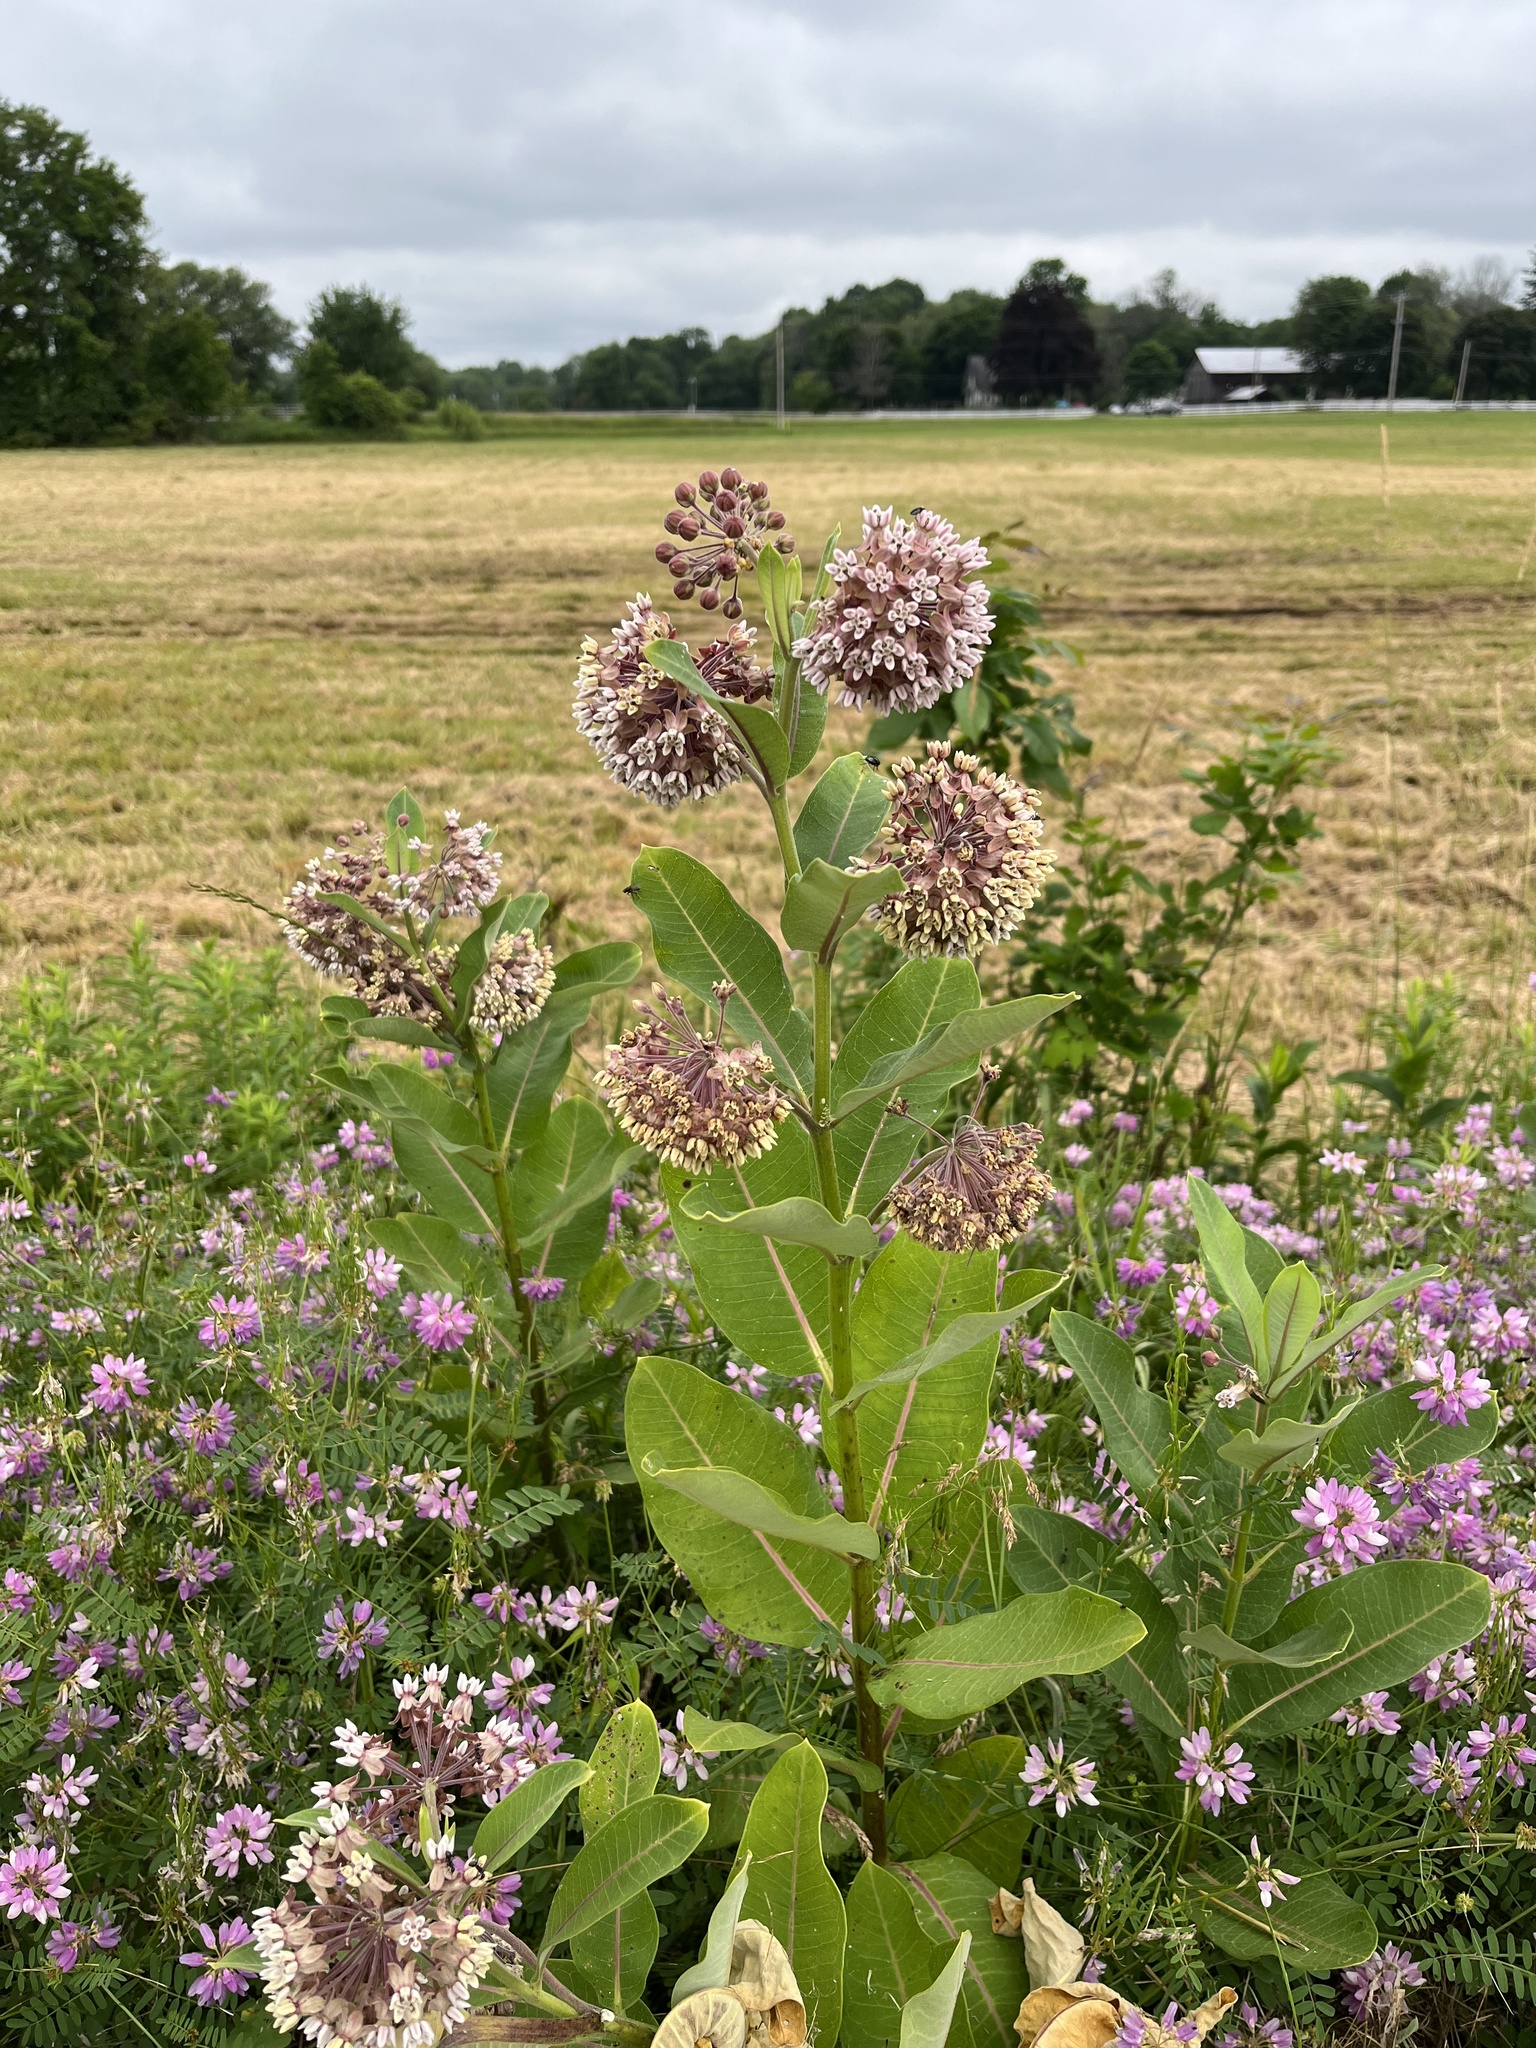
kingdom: Plantae
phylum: Tracheophyta
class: Magnoliopsida
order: Gentianales
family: Apocynaceae
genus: Asclepias
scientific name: Asclepias syriaca
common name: Common milkweed
